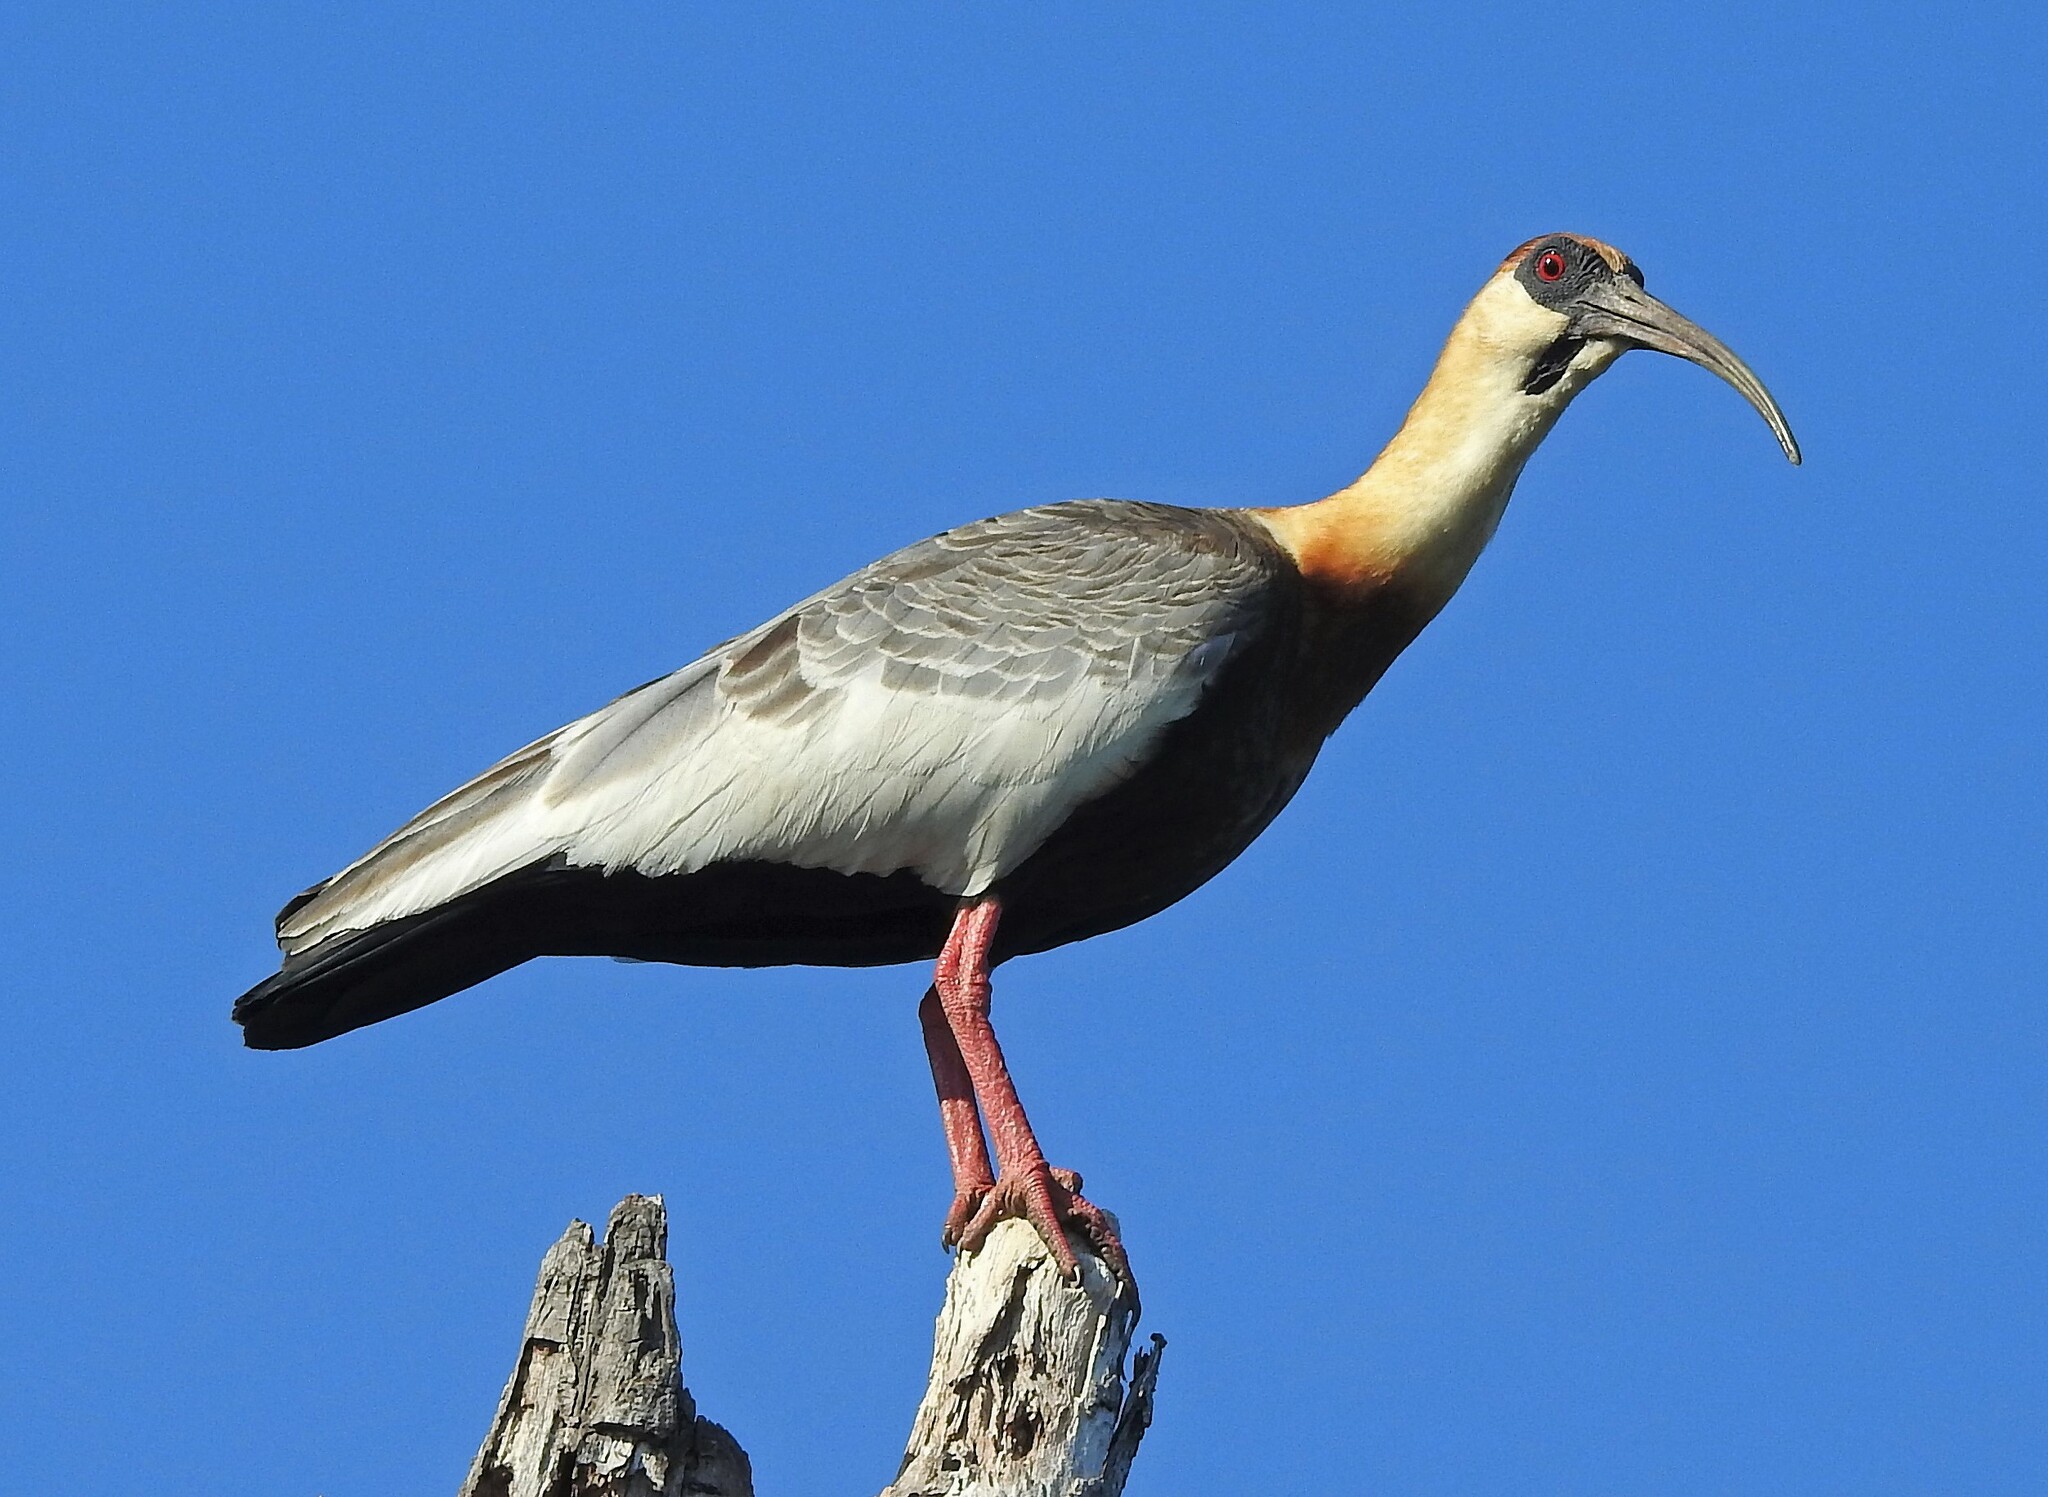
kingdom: Animalia
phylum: Chordata
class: Aves
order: Pelecaniformes
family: Threskiornithidae
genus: Theristicus
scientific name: Theristicus caudatus
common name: Buff-necked ibis
